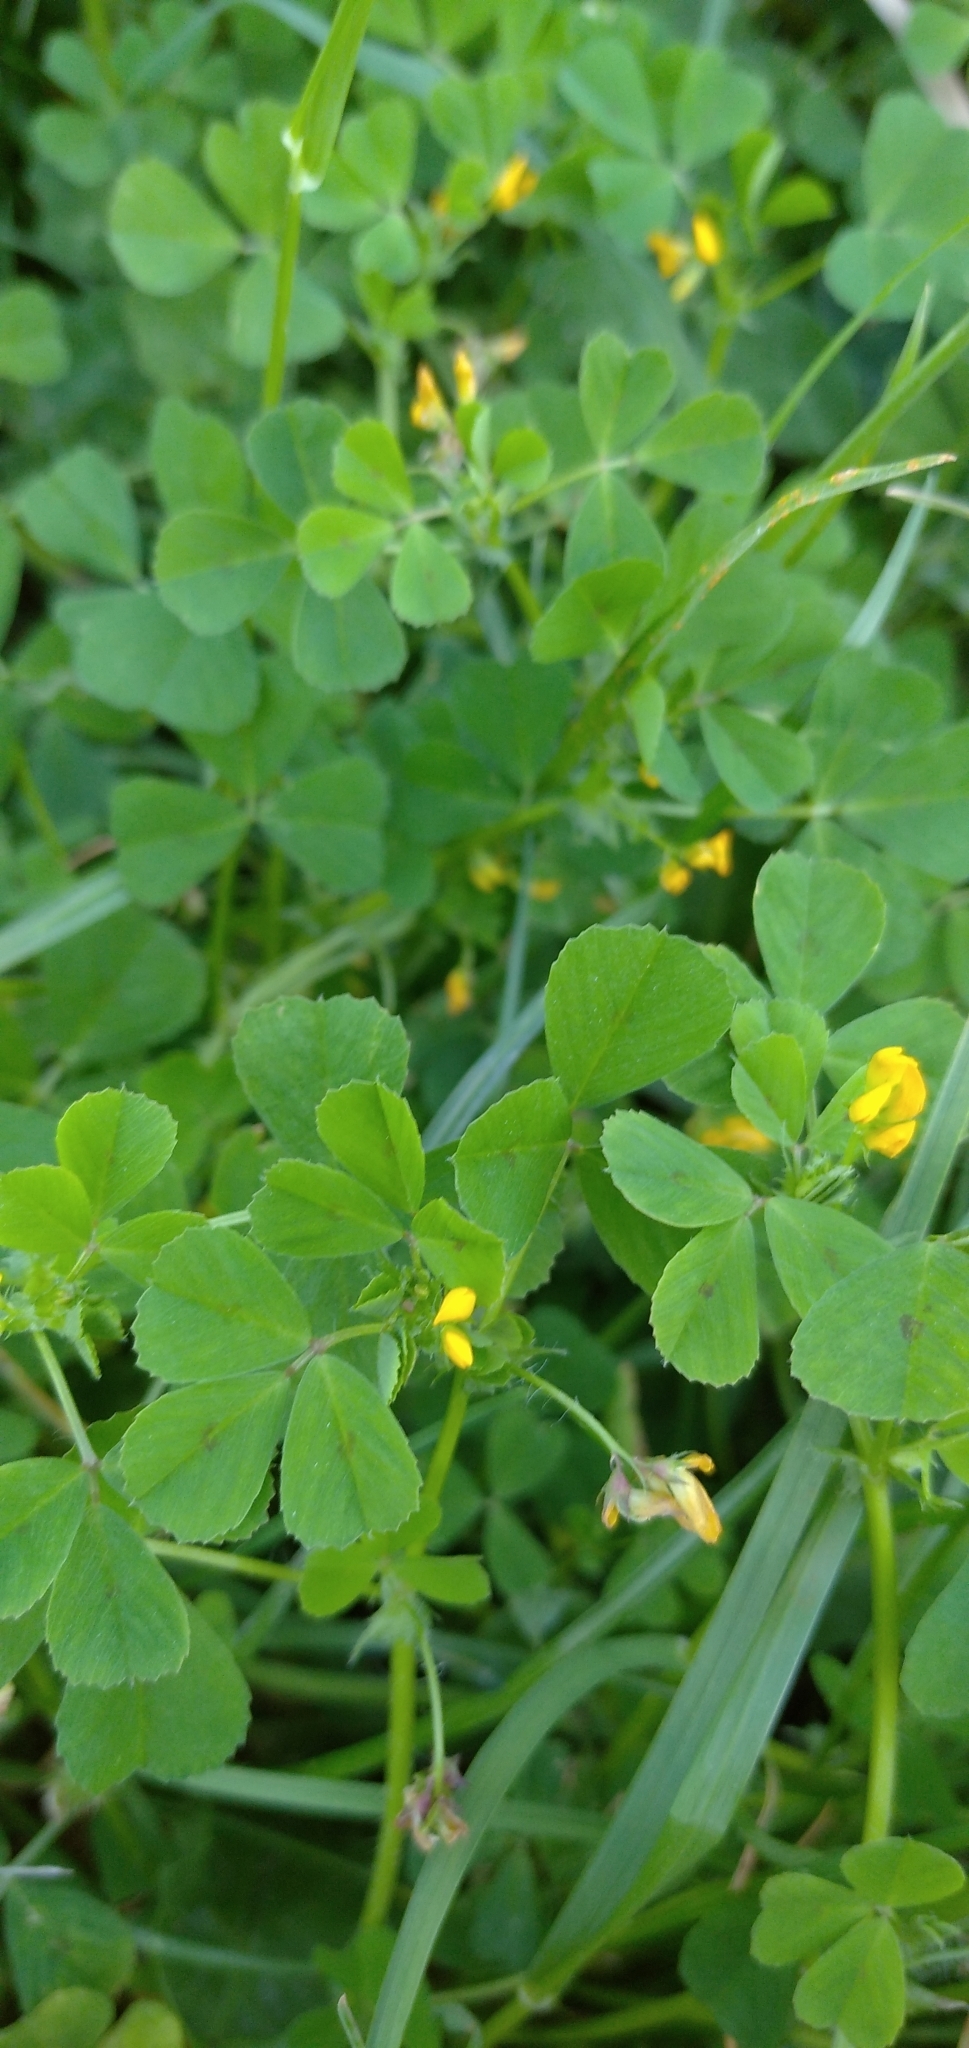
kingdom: Plantae
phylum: Tracheophyta
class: Magnoliopsida
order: Fabales
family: Fabaceae
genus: Medicago
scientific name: Medicago arabica
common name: Spotted medick
